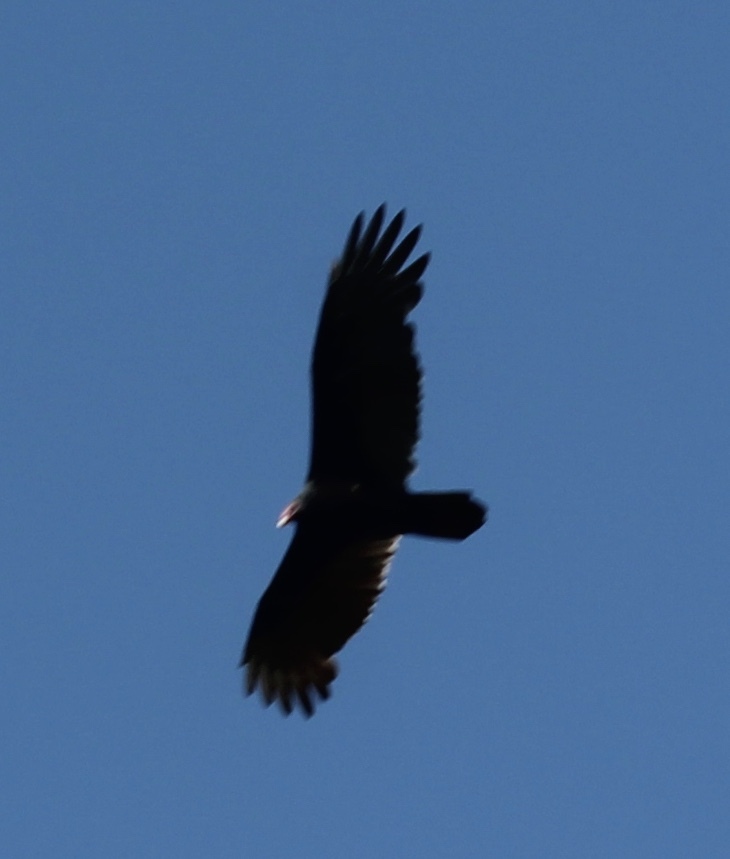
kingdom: Animalia
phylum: Chordata
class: Aves
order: Accipitriformes
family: Cathartidae
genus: Cathartes
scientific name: Cathartes aura
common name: Turkey vulture
